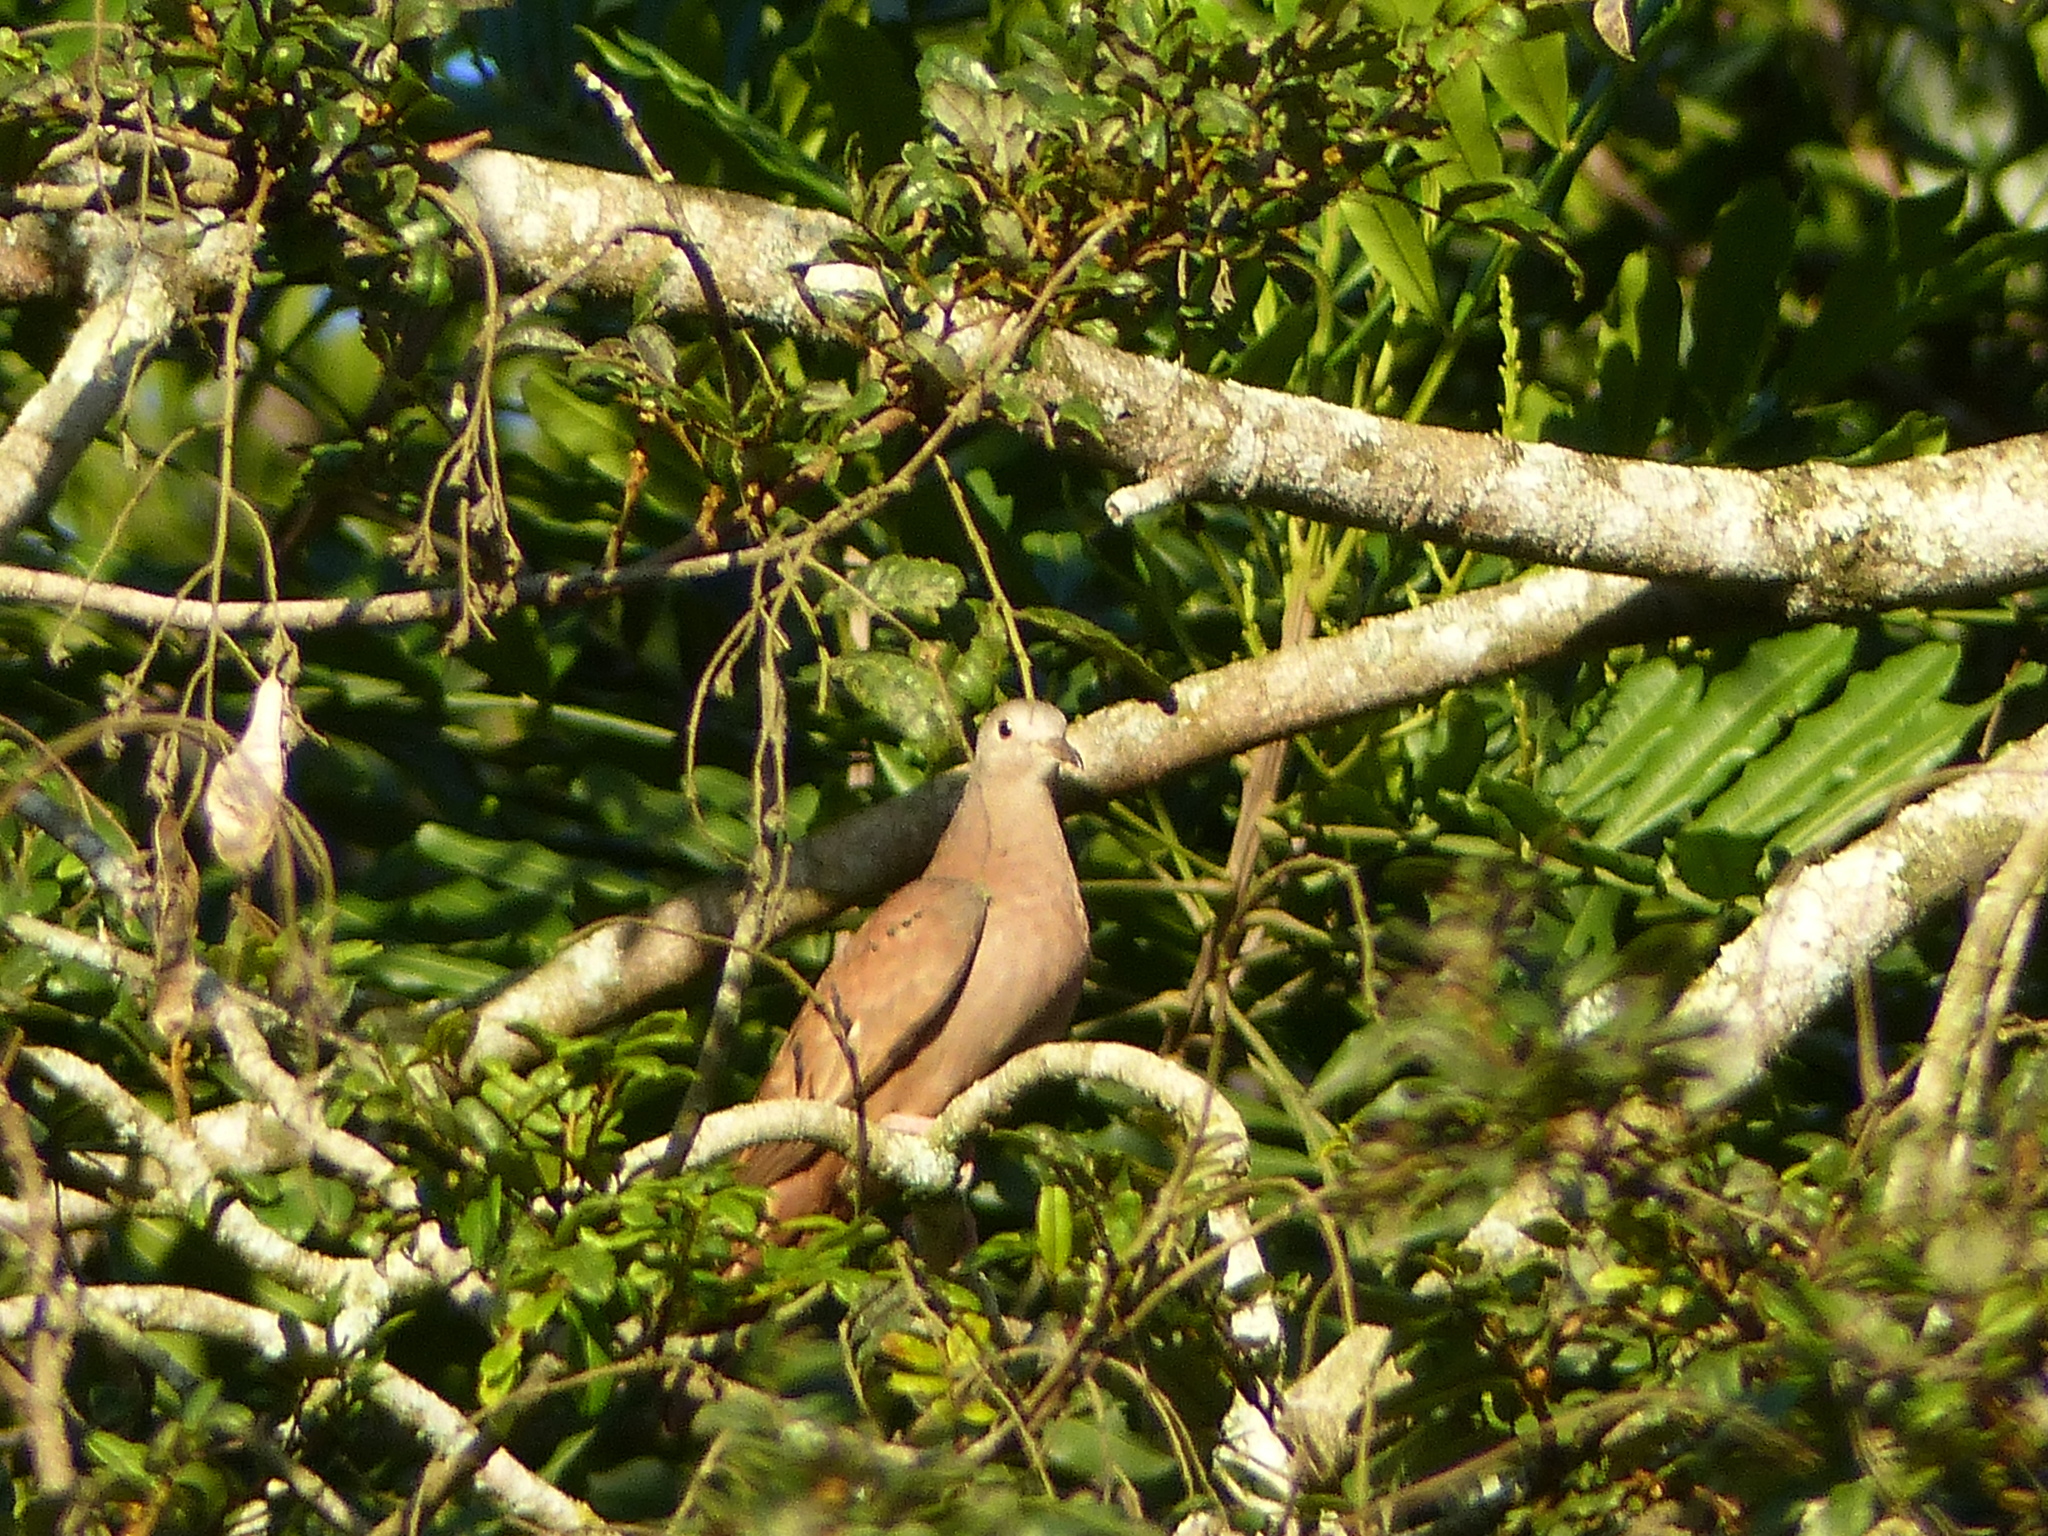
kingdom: Animalia
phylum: Chordata
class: Aves
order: Columbiformes
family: Columbidae
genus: Columbina
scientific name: Columbina talpacoti
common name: Ruddy ground dove
